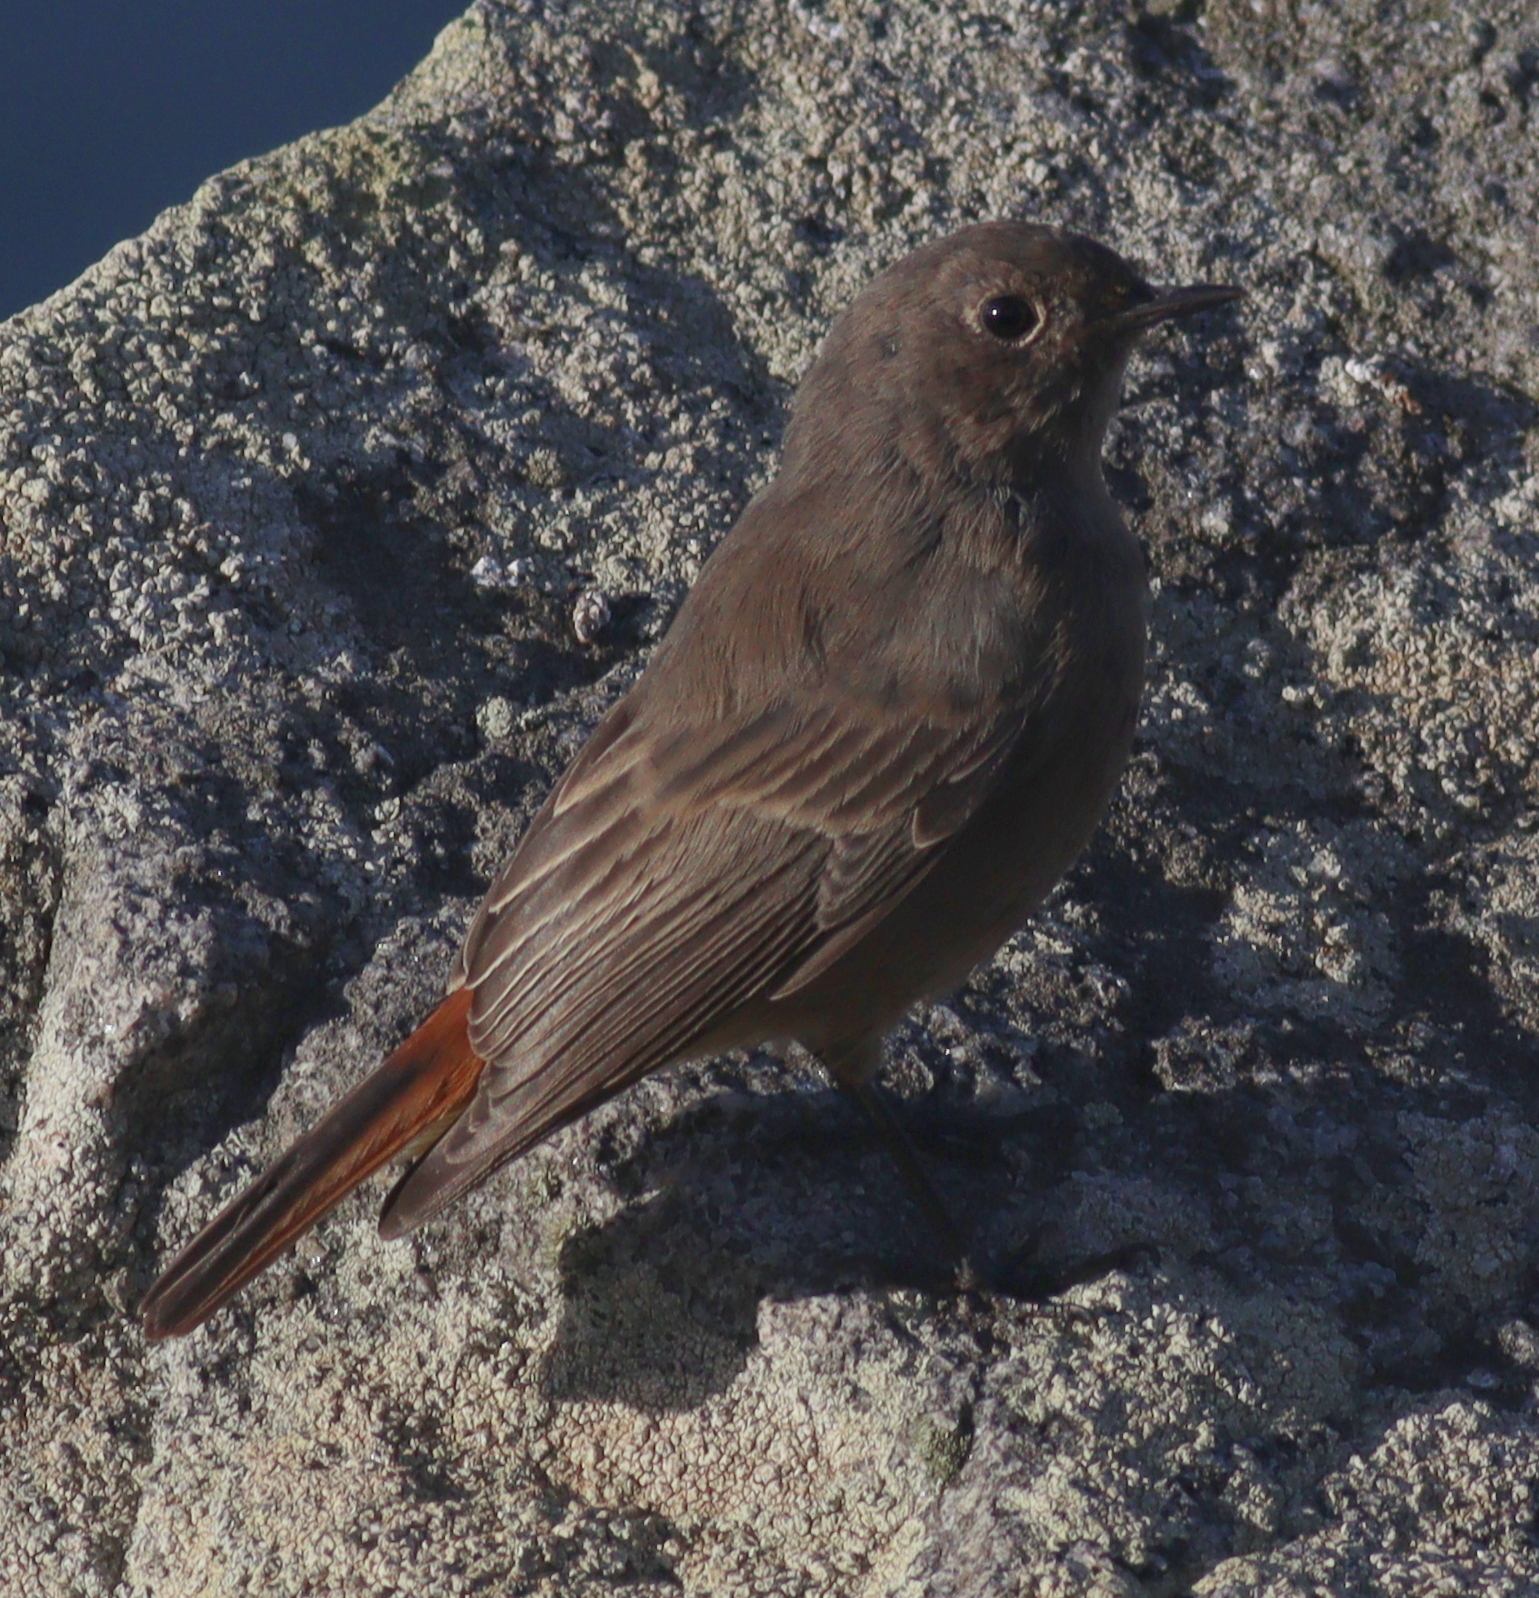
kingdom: Animalia
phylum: Chordata
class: Aves
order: Passeriformes
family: Muscicapidae
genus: Phoenicurus
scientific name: Phoenicurus ochruros
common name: Black redstart
